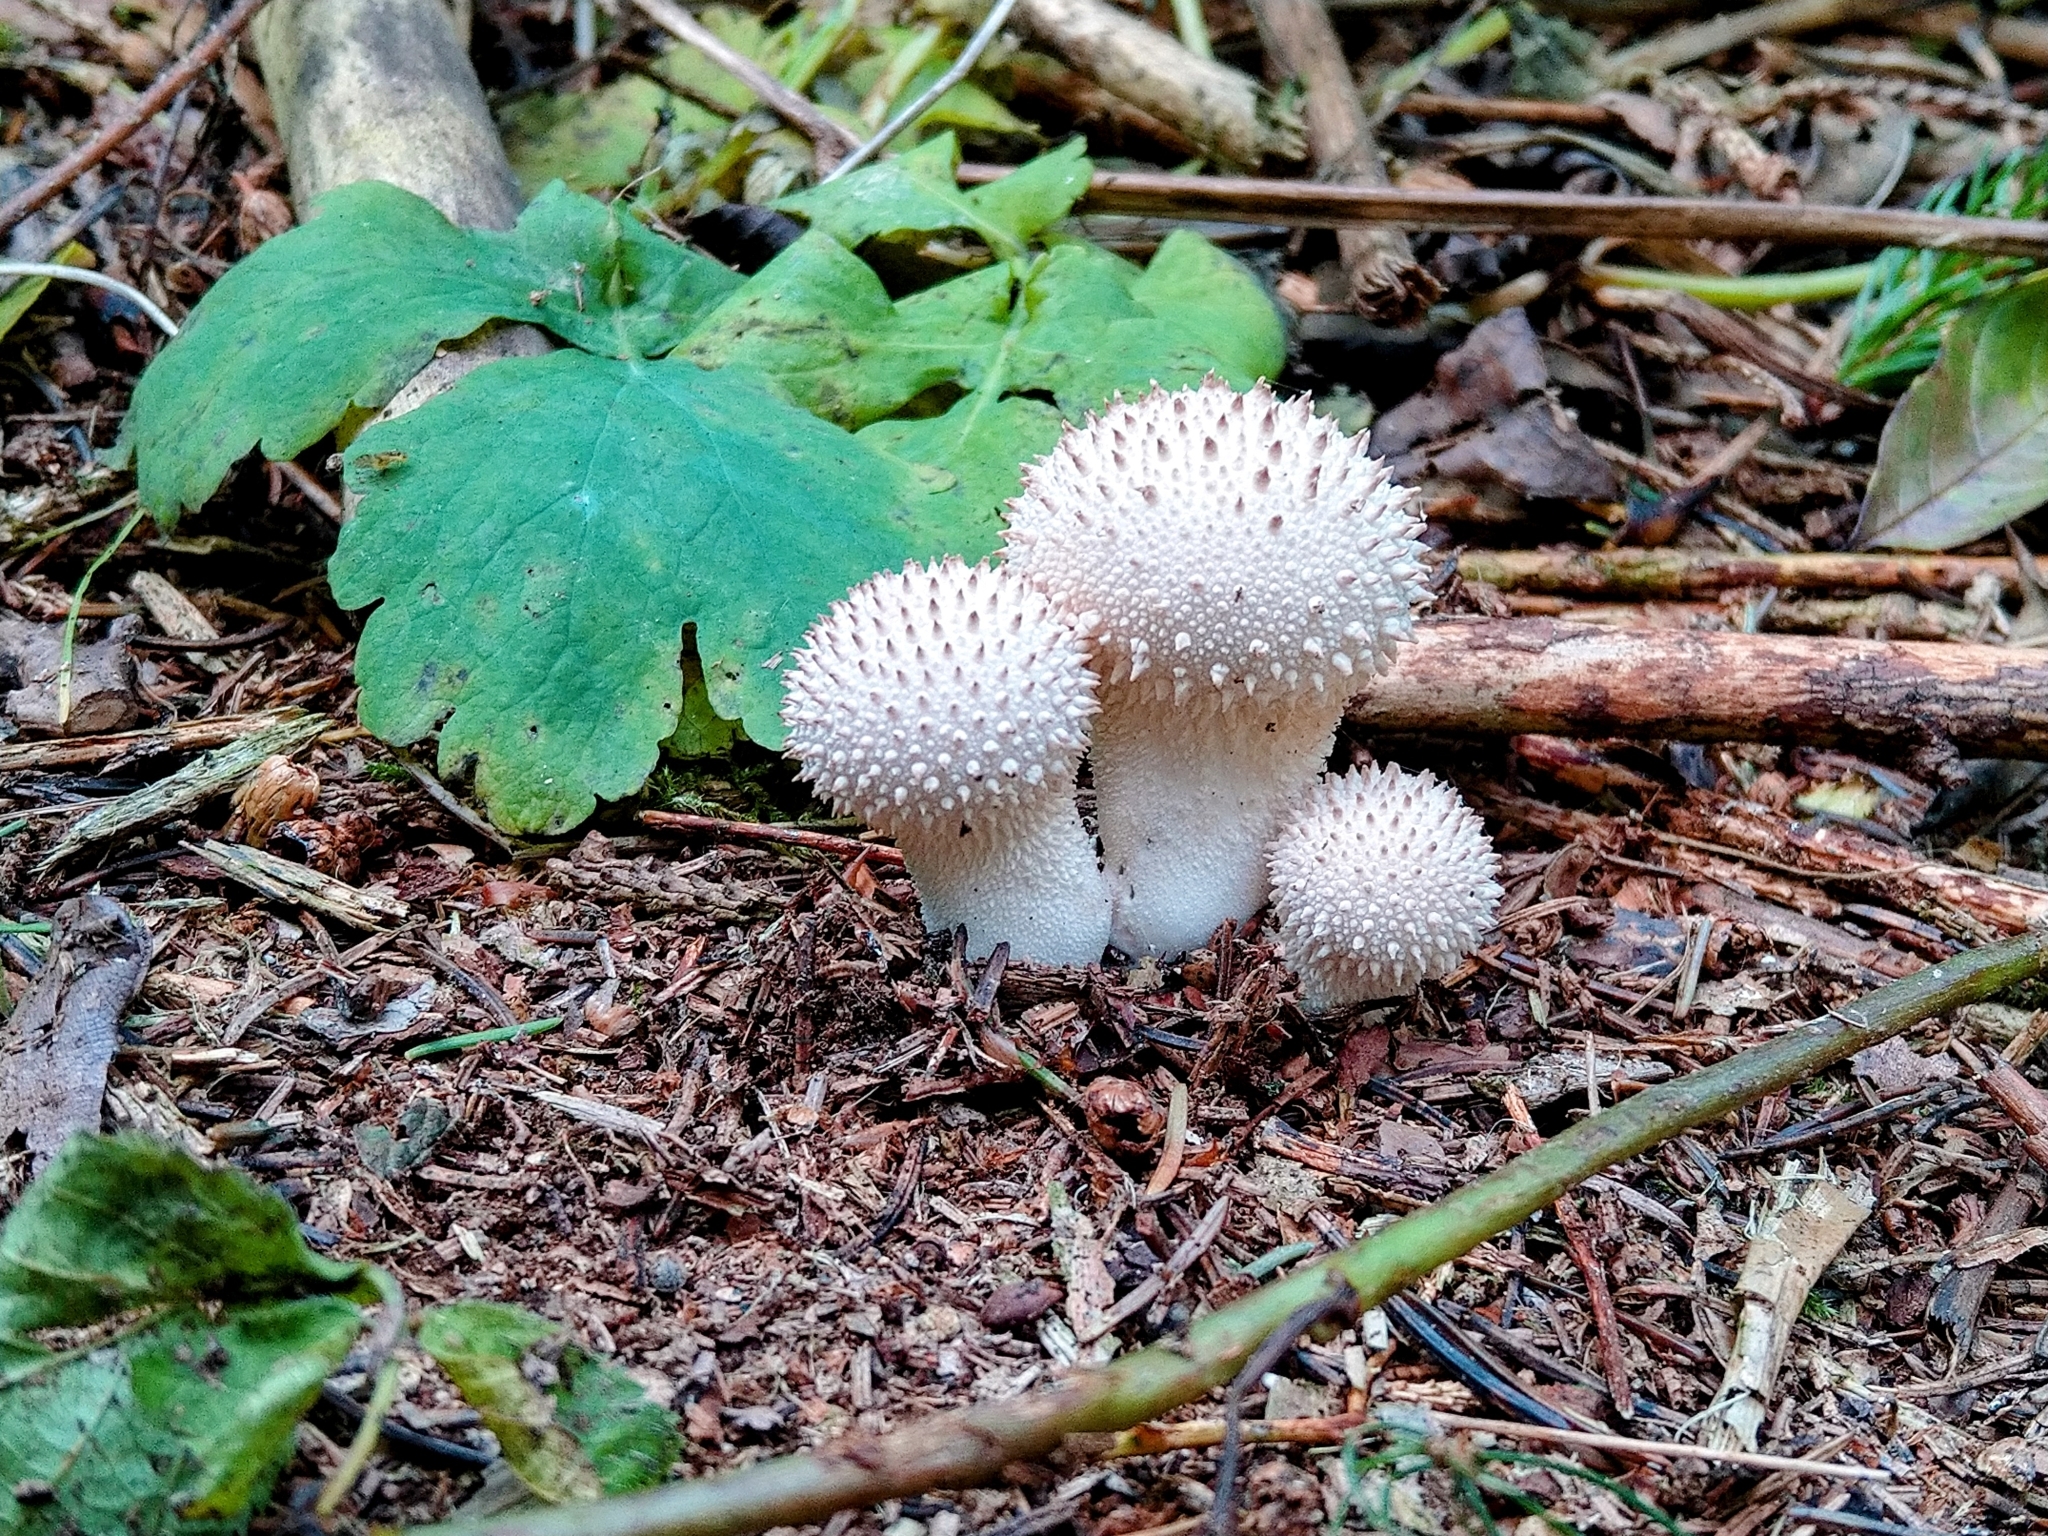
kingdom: Fungi
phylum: Basidiomycota
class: Agaricomycetes
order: Agaricales
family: Lycoperdaceae
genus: Lycoperdon
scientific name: Lycoperdon perlatum
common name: Common puffball
